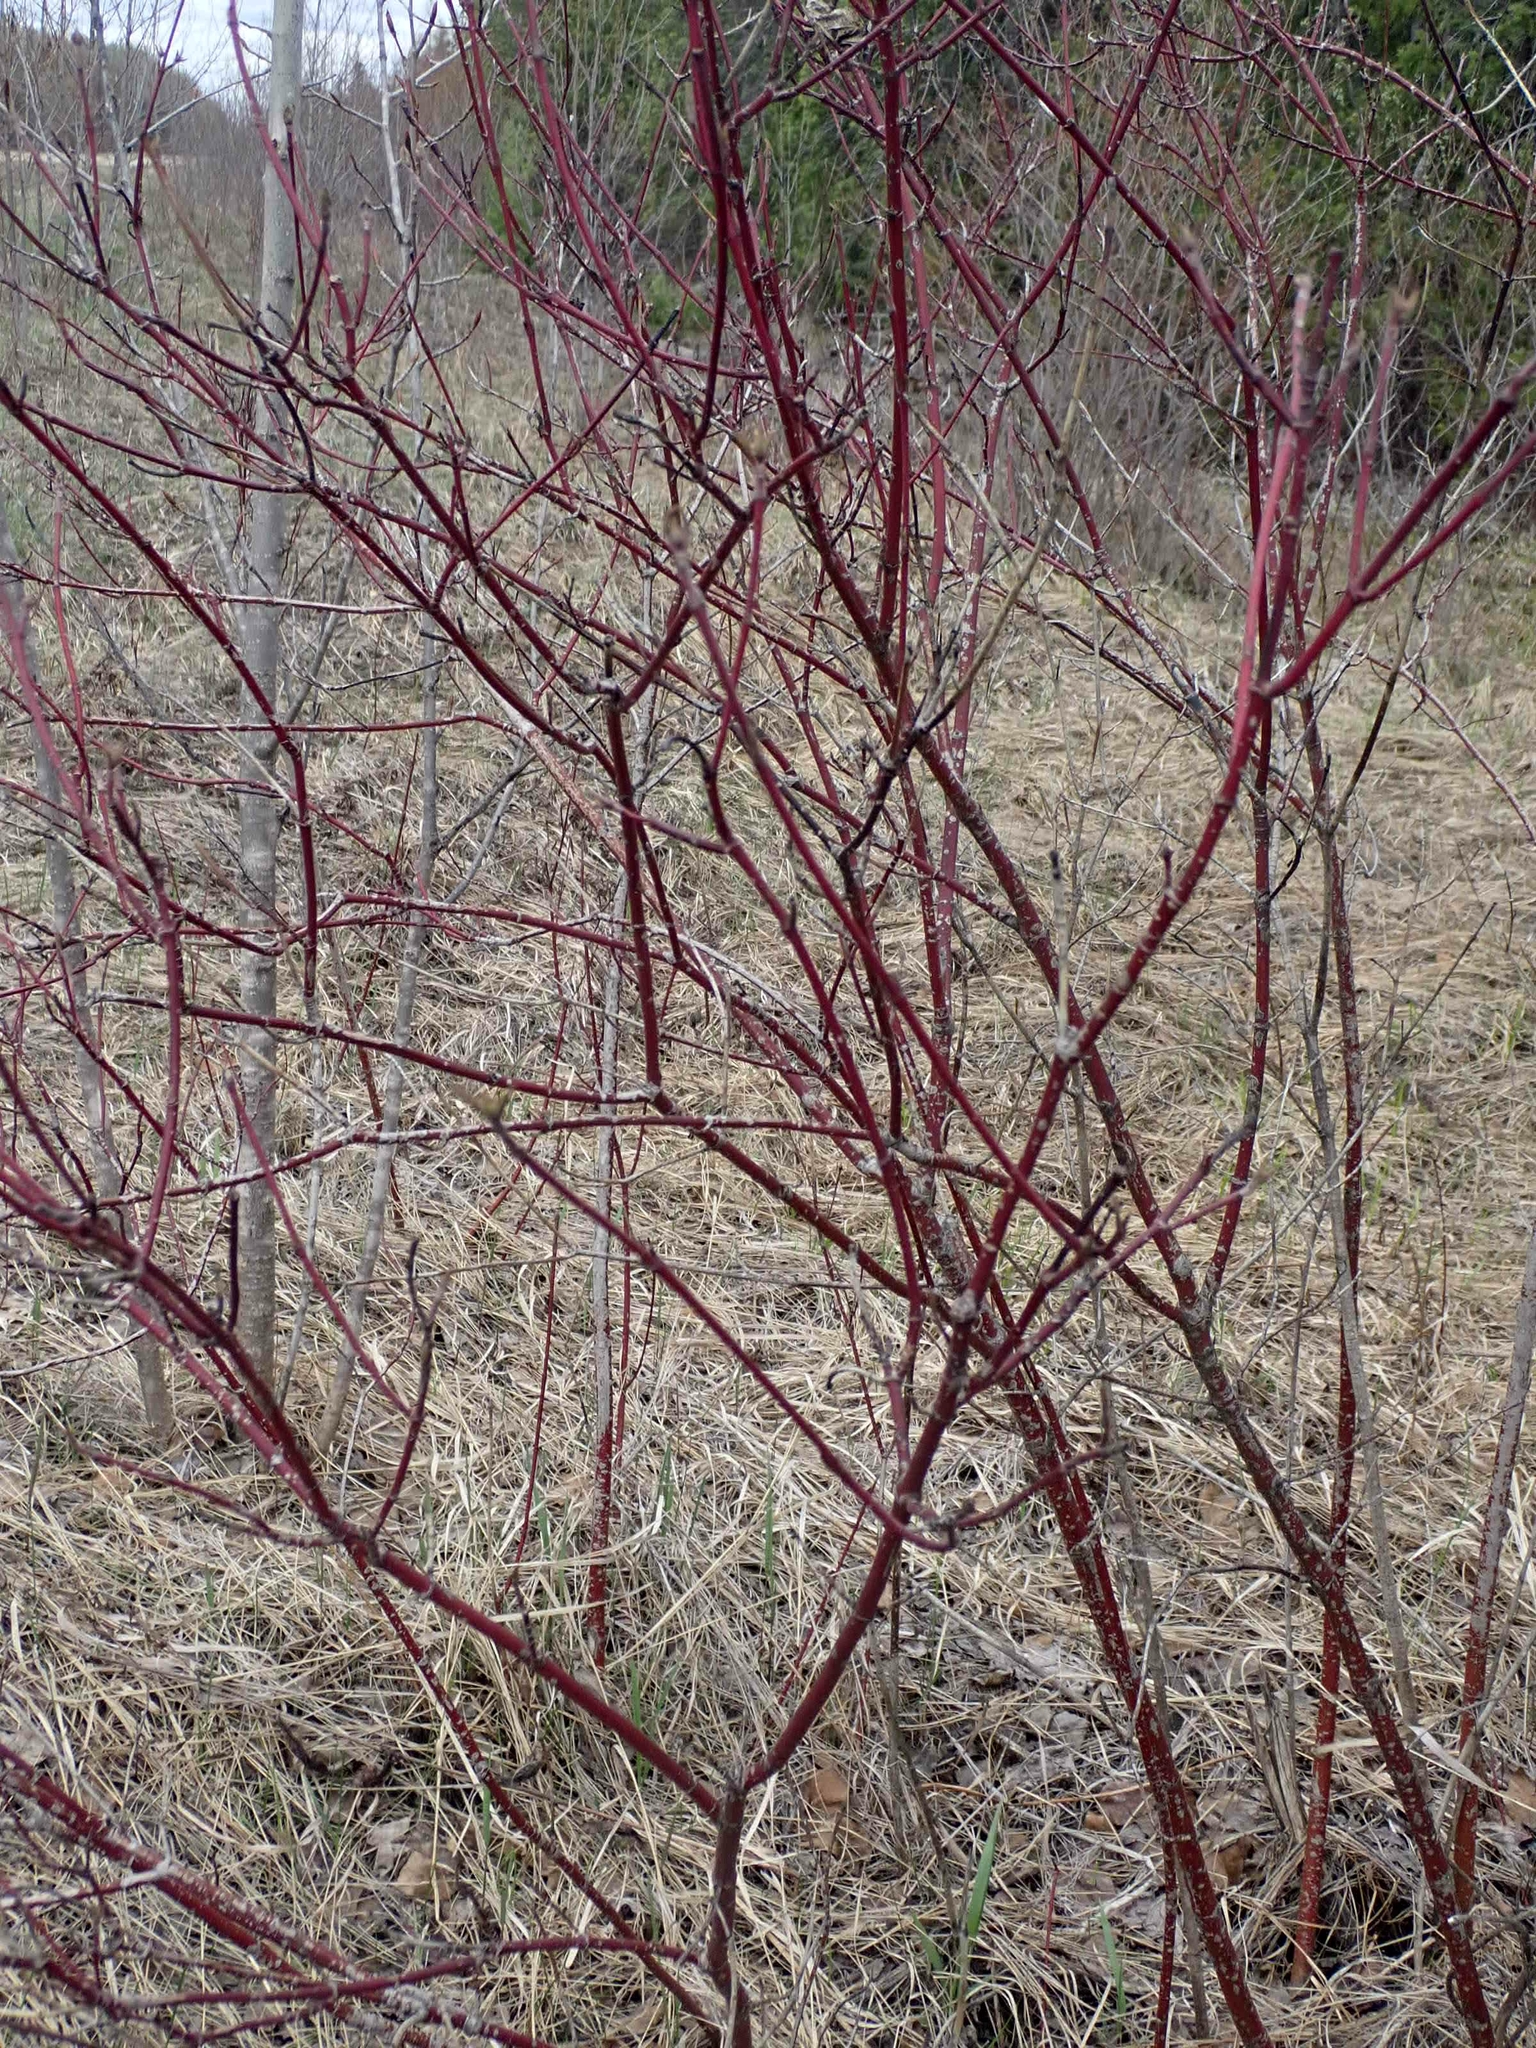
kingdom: Plantae
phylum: Tracheophyta
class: Magnoliopsida
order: Cornales
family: Cornaceae
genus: Cornus
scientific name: Cornus sericea
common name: Red-osier dogwood
